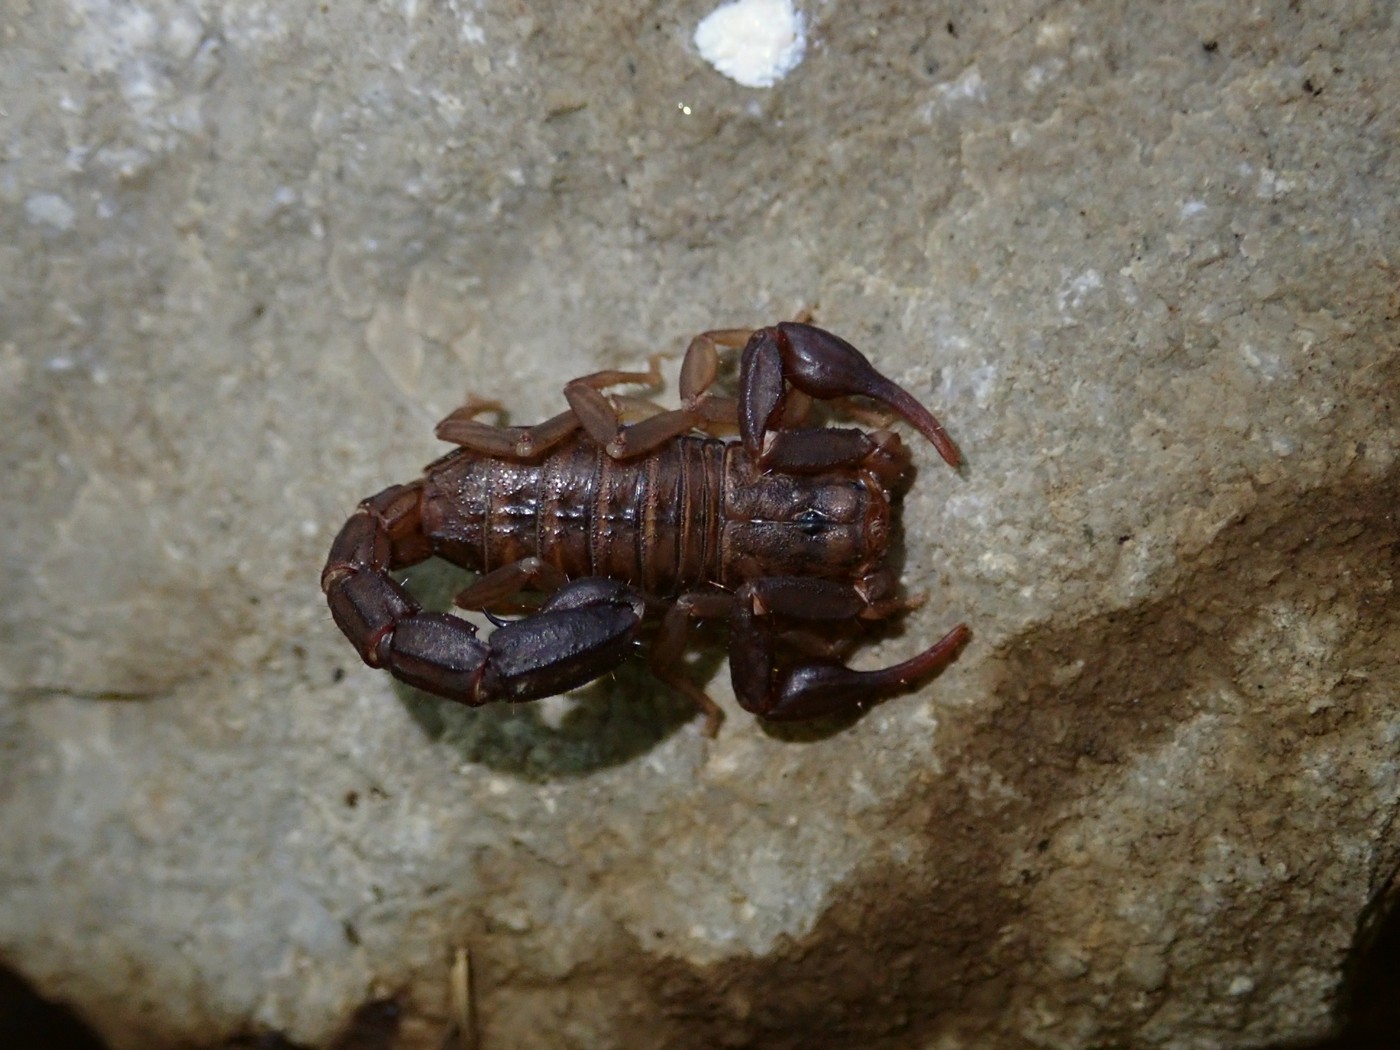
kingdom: Animalia
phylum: Arthropoda
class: Arachnida
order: Scorpiones
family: Vaejovidae
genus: Vaejovis
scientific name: Vaejovis carolinianus
